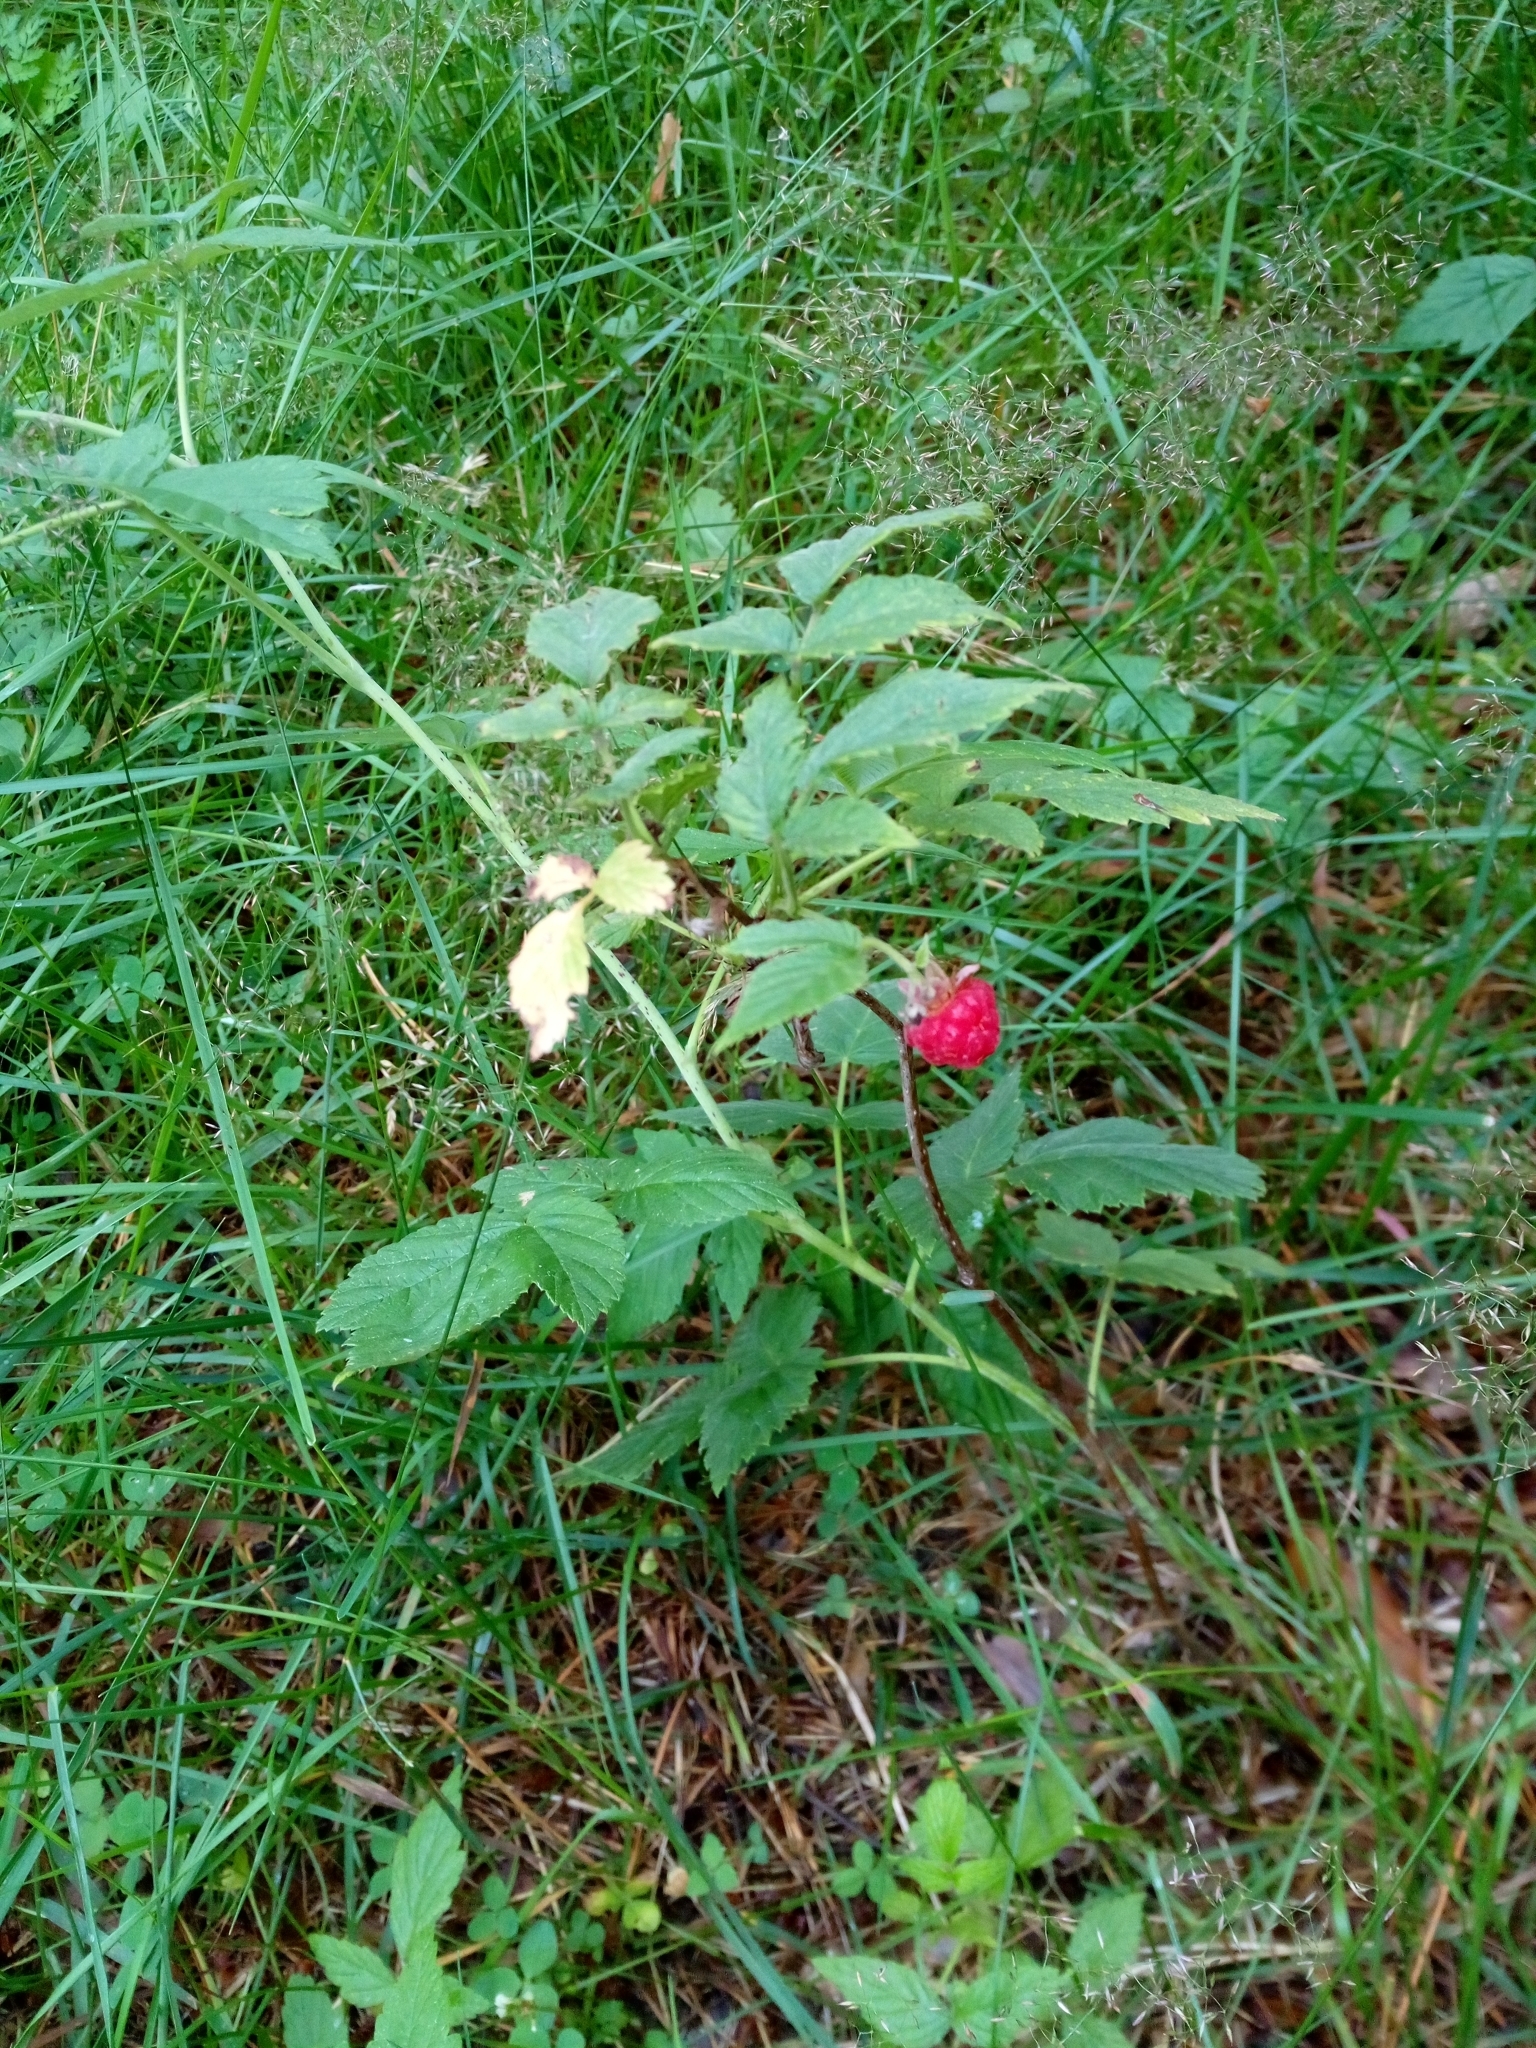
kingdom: Plantae
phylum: Tracheophyta
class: Magnoliopsida
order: Rosales
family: Rosaceae
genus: Rubus
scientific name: Rubus idaeus
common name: Raspberry
